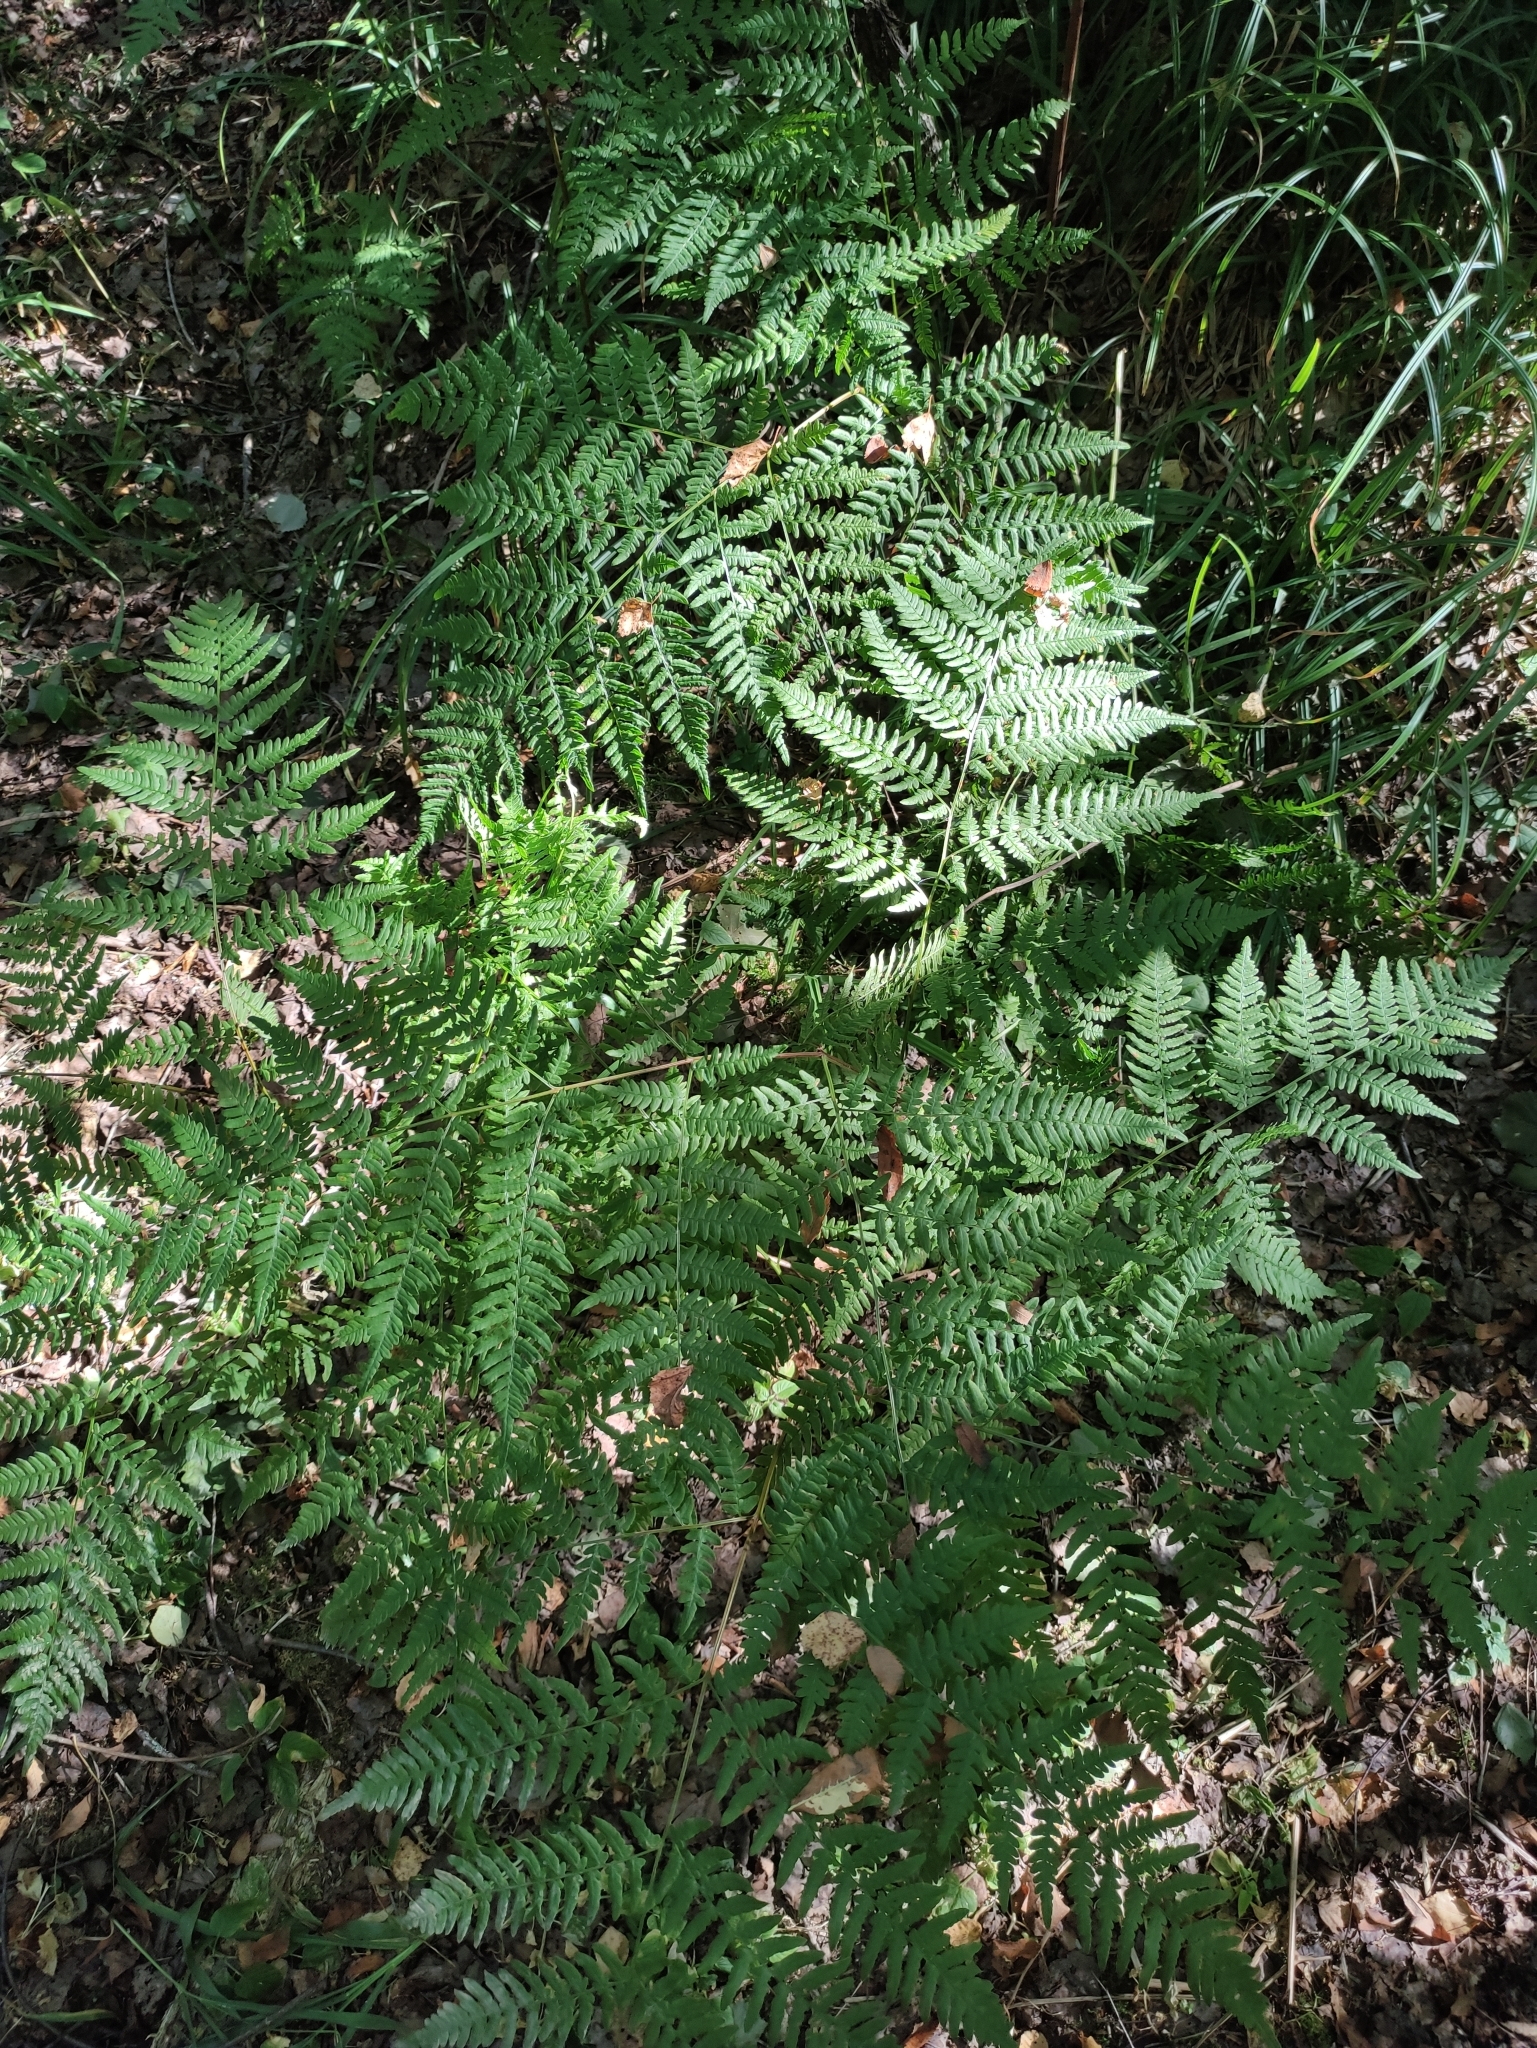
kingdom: Plantae
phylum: Tracheophyta
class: Polypodiopsida
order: Polypodiales
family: Dennstaedtiaceae
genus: Pteridium
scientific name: Pteridium aquilinum
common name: Bracken
